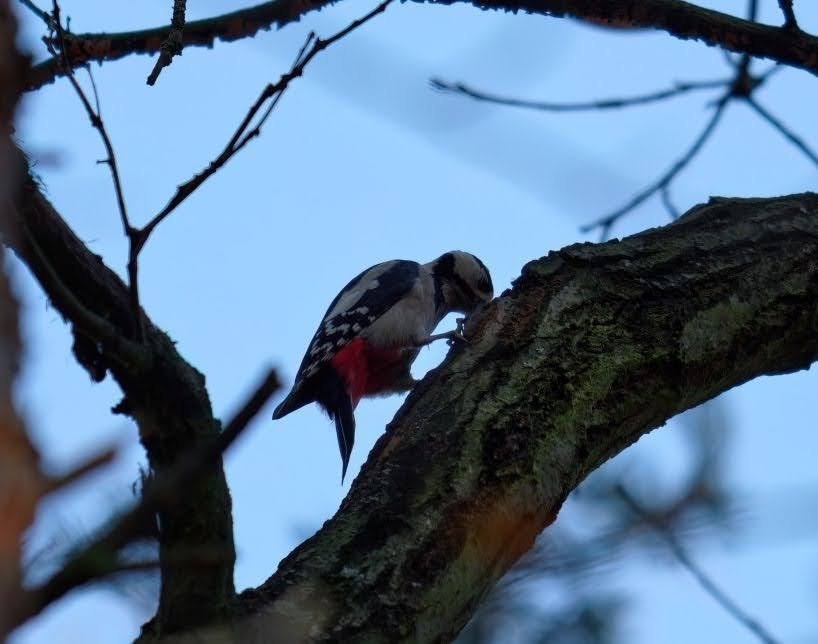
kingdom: Animalia
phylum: Chordata
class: Aves
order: Piciformes
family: Picidae
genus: Dendrocopos
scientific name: Dendrocopos major
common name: Great spotted woodpecker
